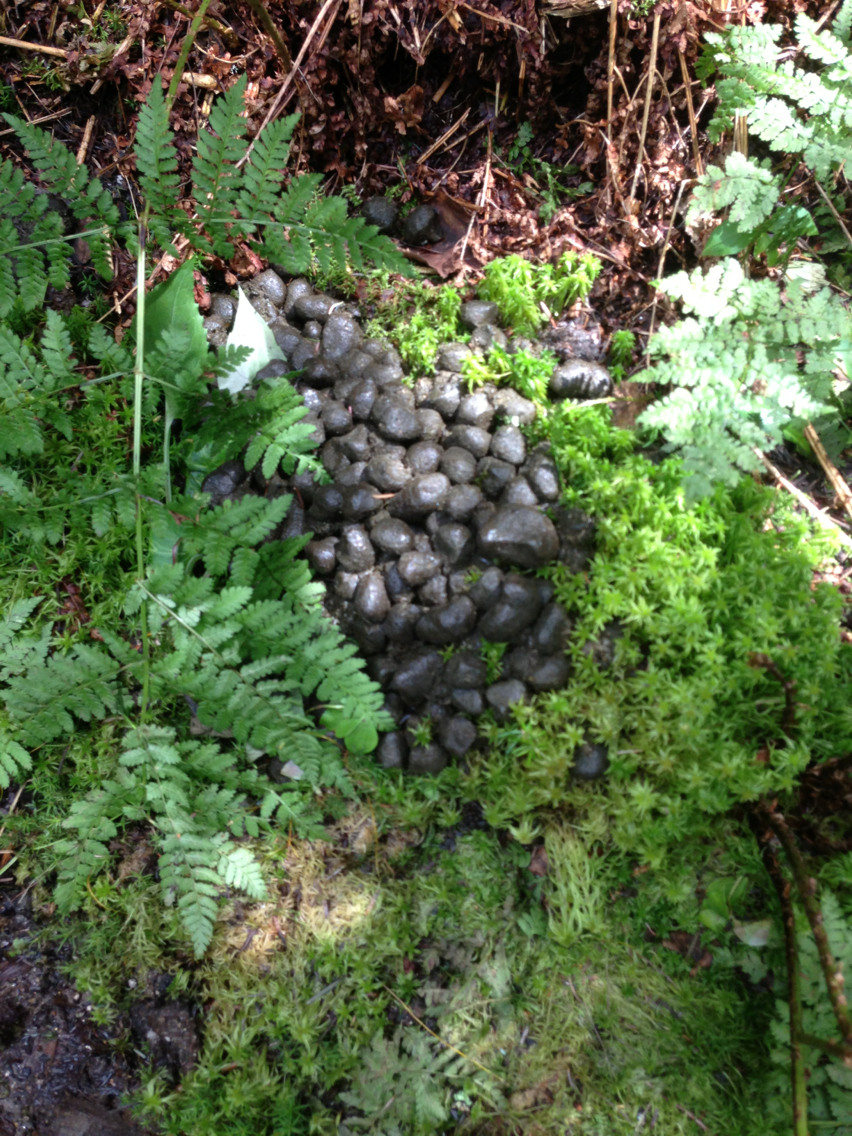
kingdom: Animalia
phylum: Chordata
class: Mammalia
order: Artiodactyla
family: Cervidae
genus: Alces
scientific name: Alces alces
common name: Moose
